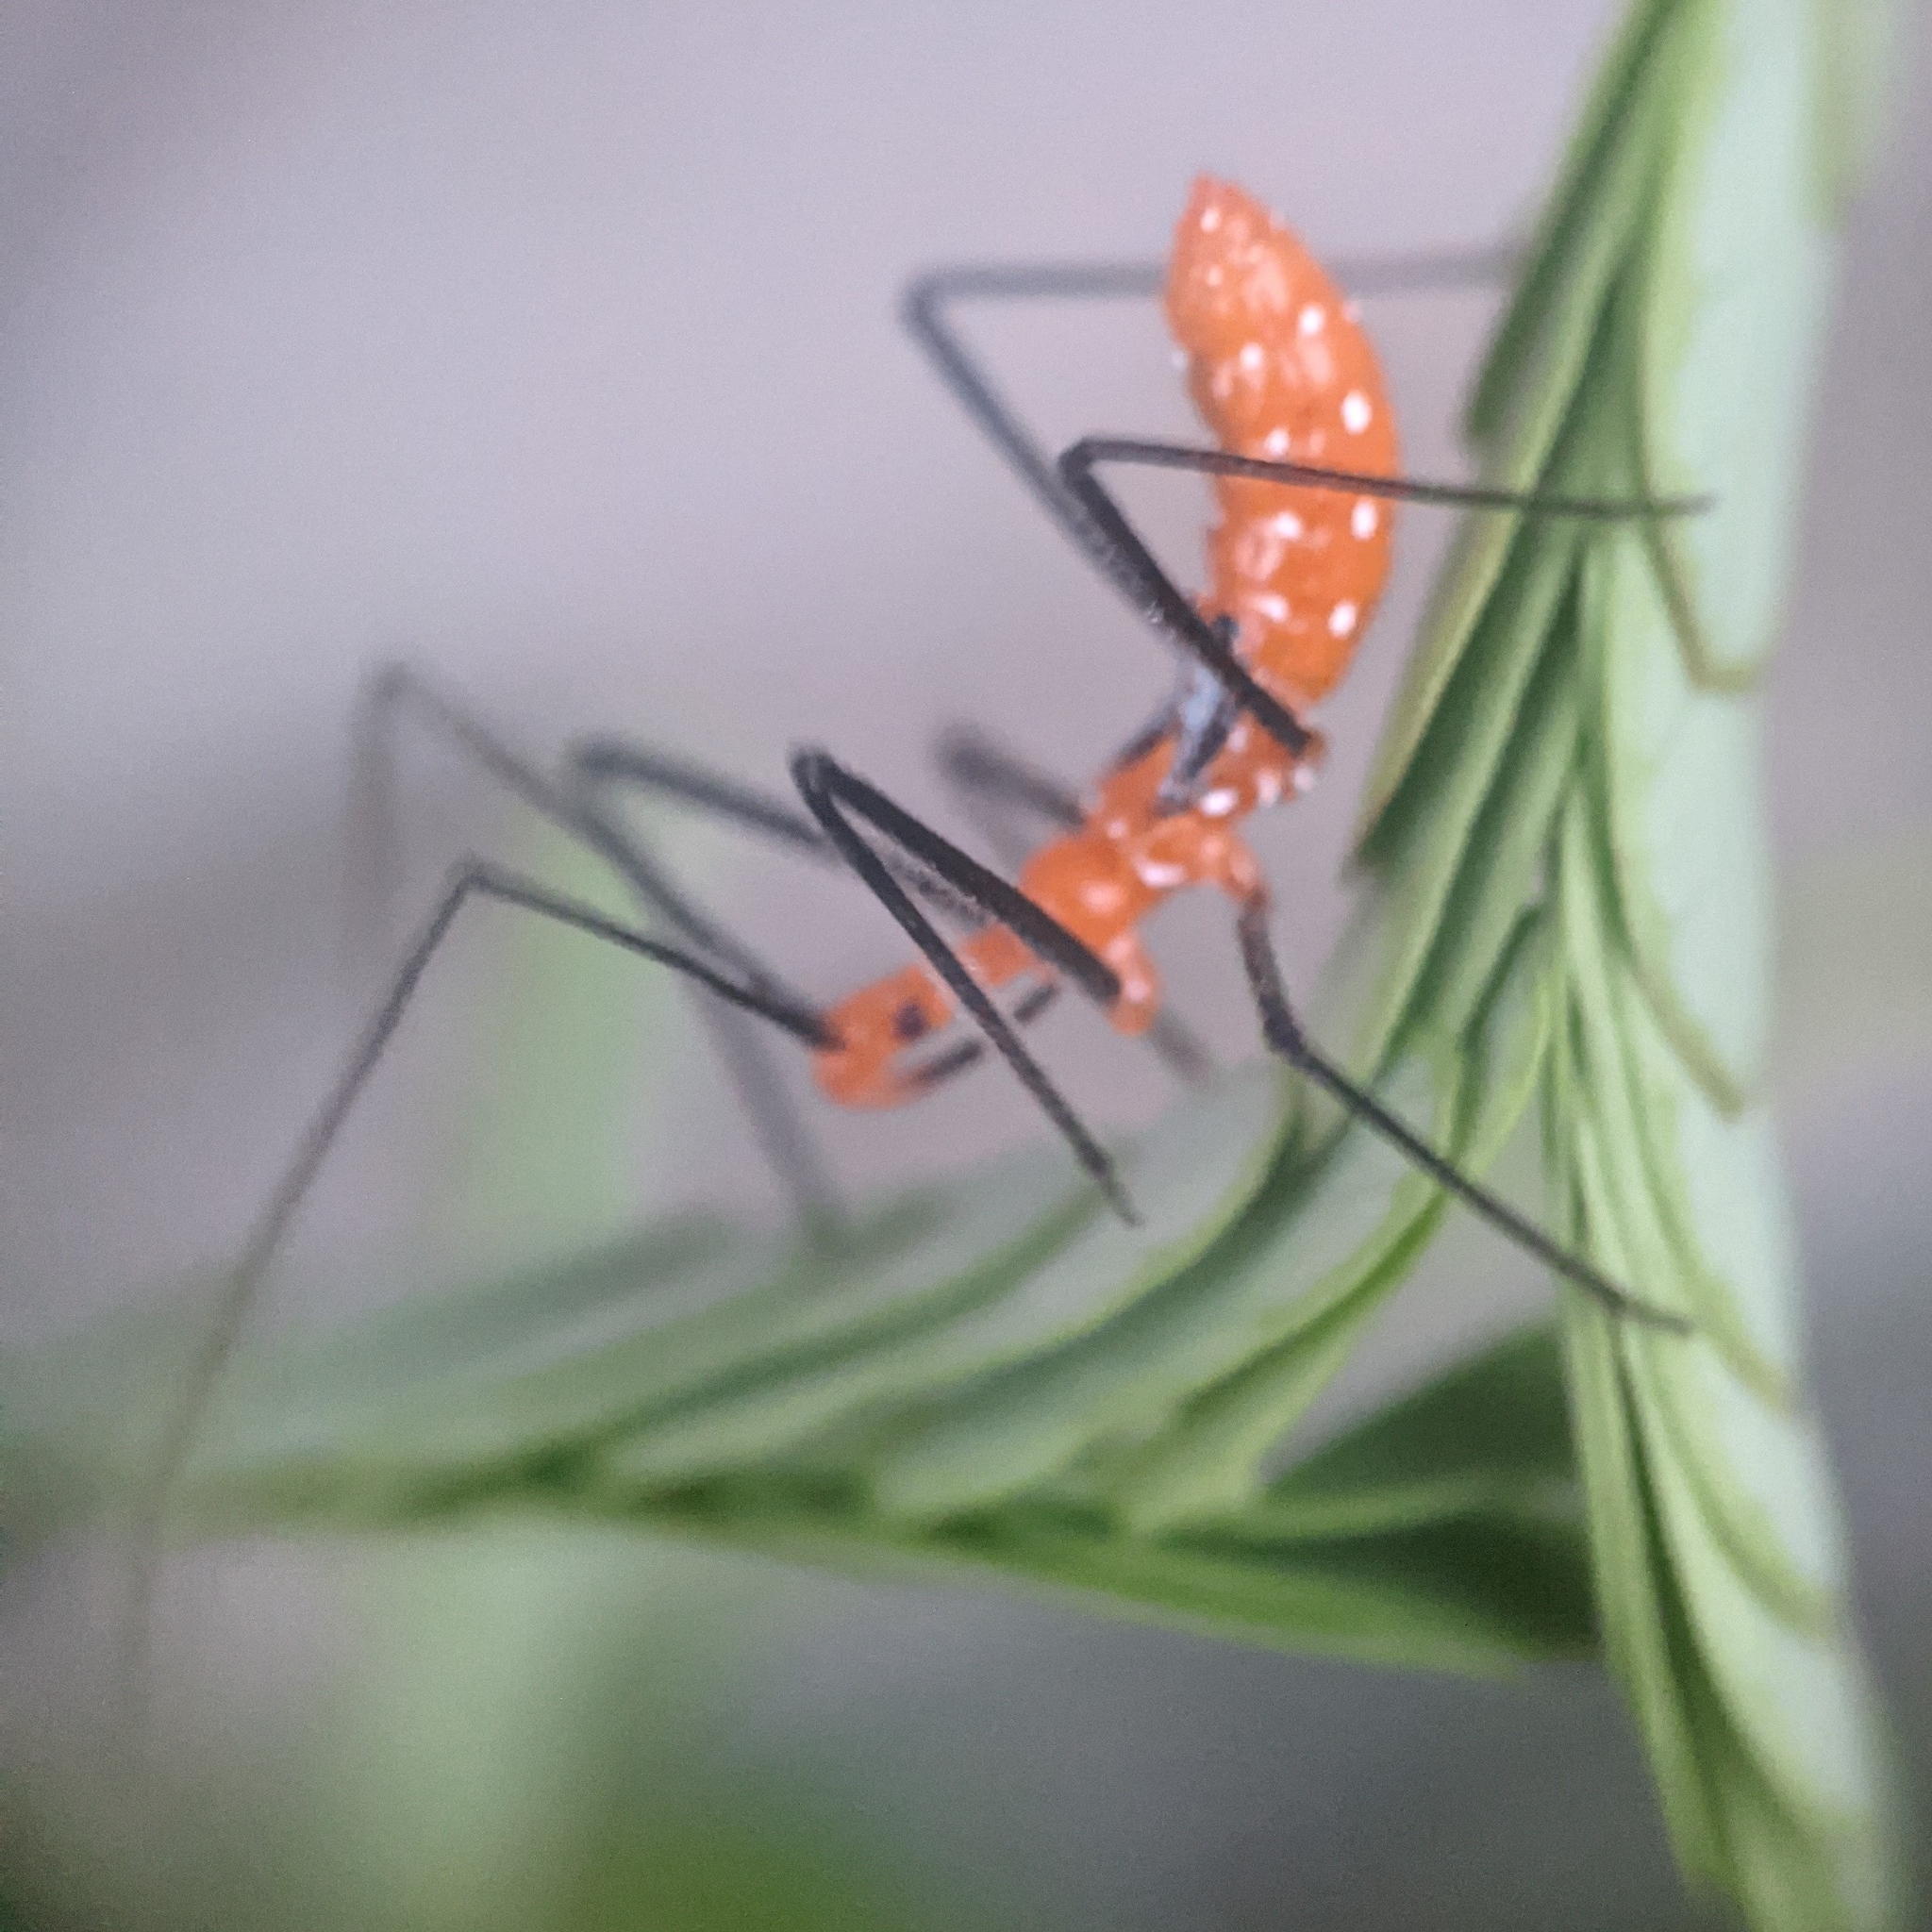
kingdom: Animalia
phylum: Arthropoda
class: Insecta
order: Hemiptera
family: Reduviidae
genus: Zelus
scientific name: Zelus longipes
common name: Milkweed assassin bug
